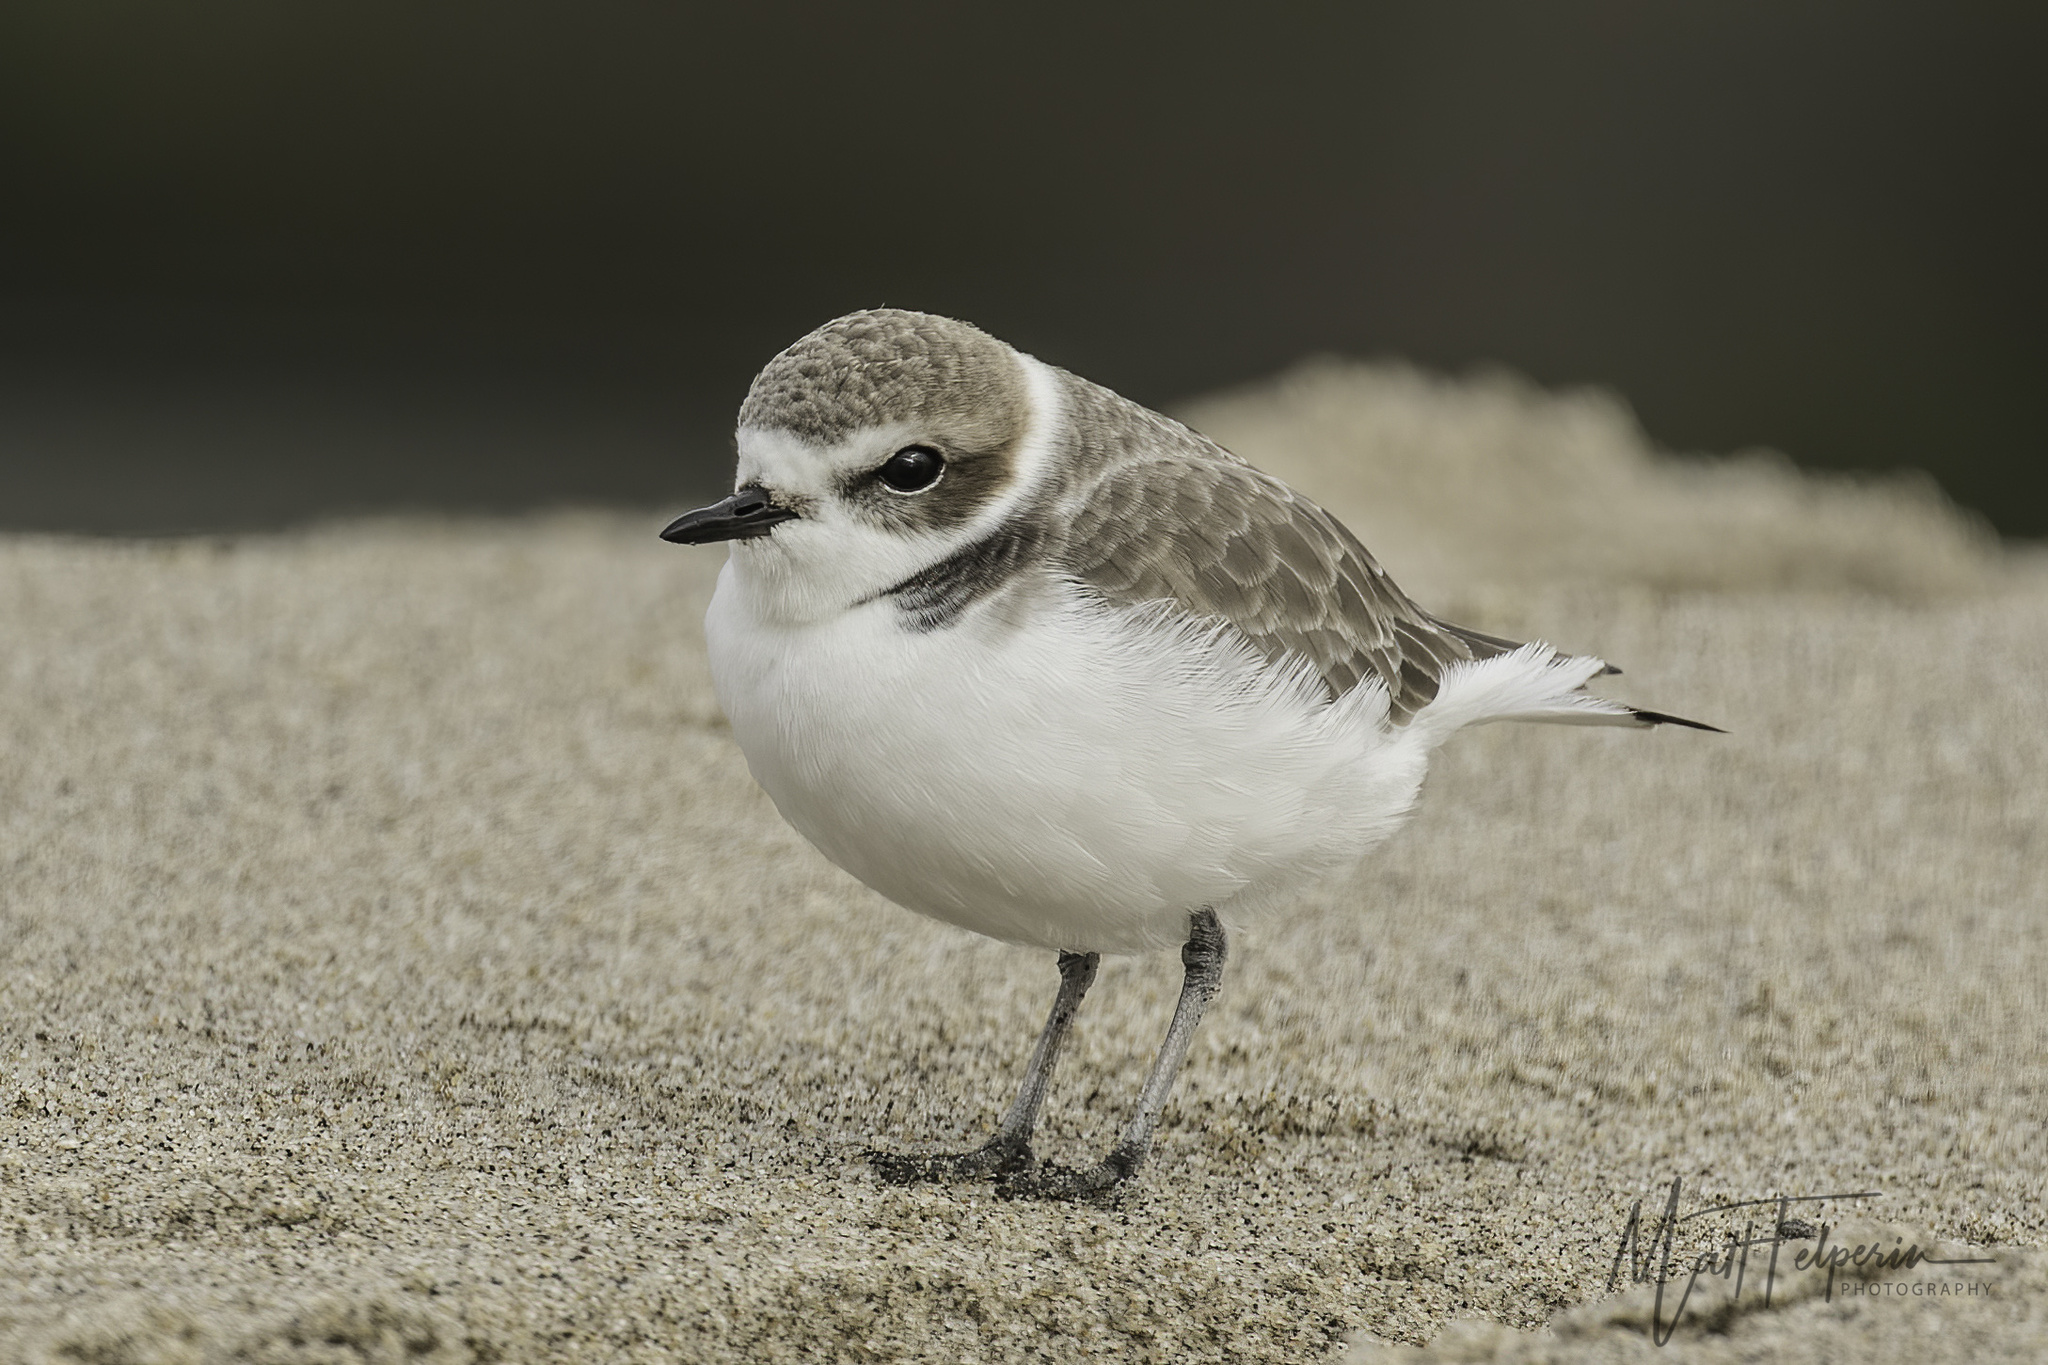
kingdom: Animalia
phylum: Chordata
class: Aves
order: Charadriiformes
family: Charadriidae
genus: Anarhynchus
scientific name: Anarhynchus
